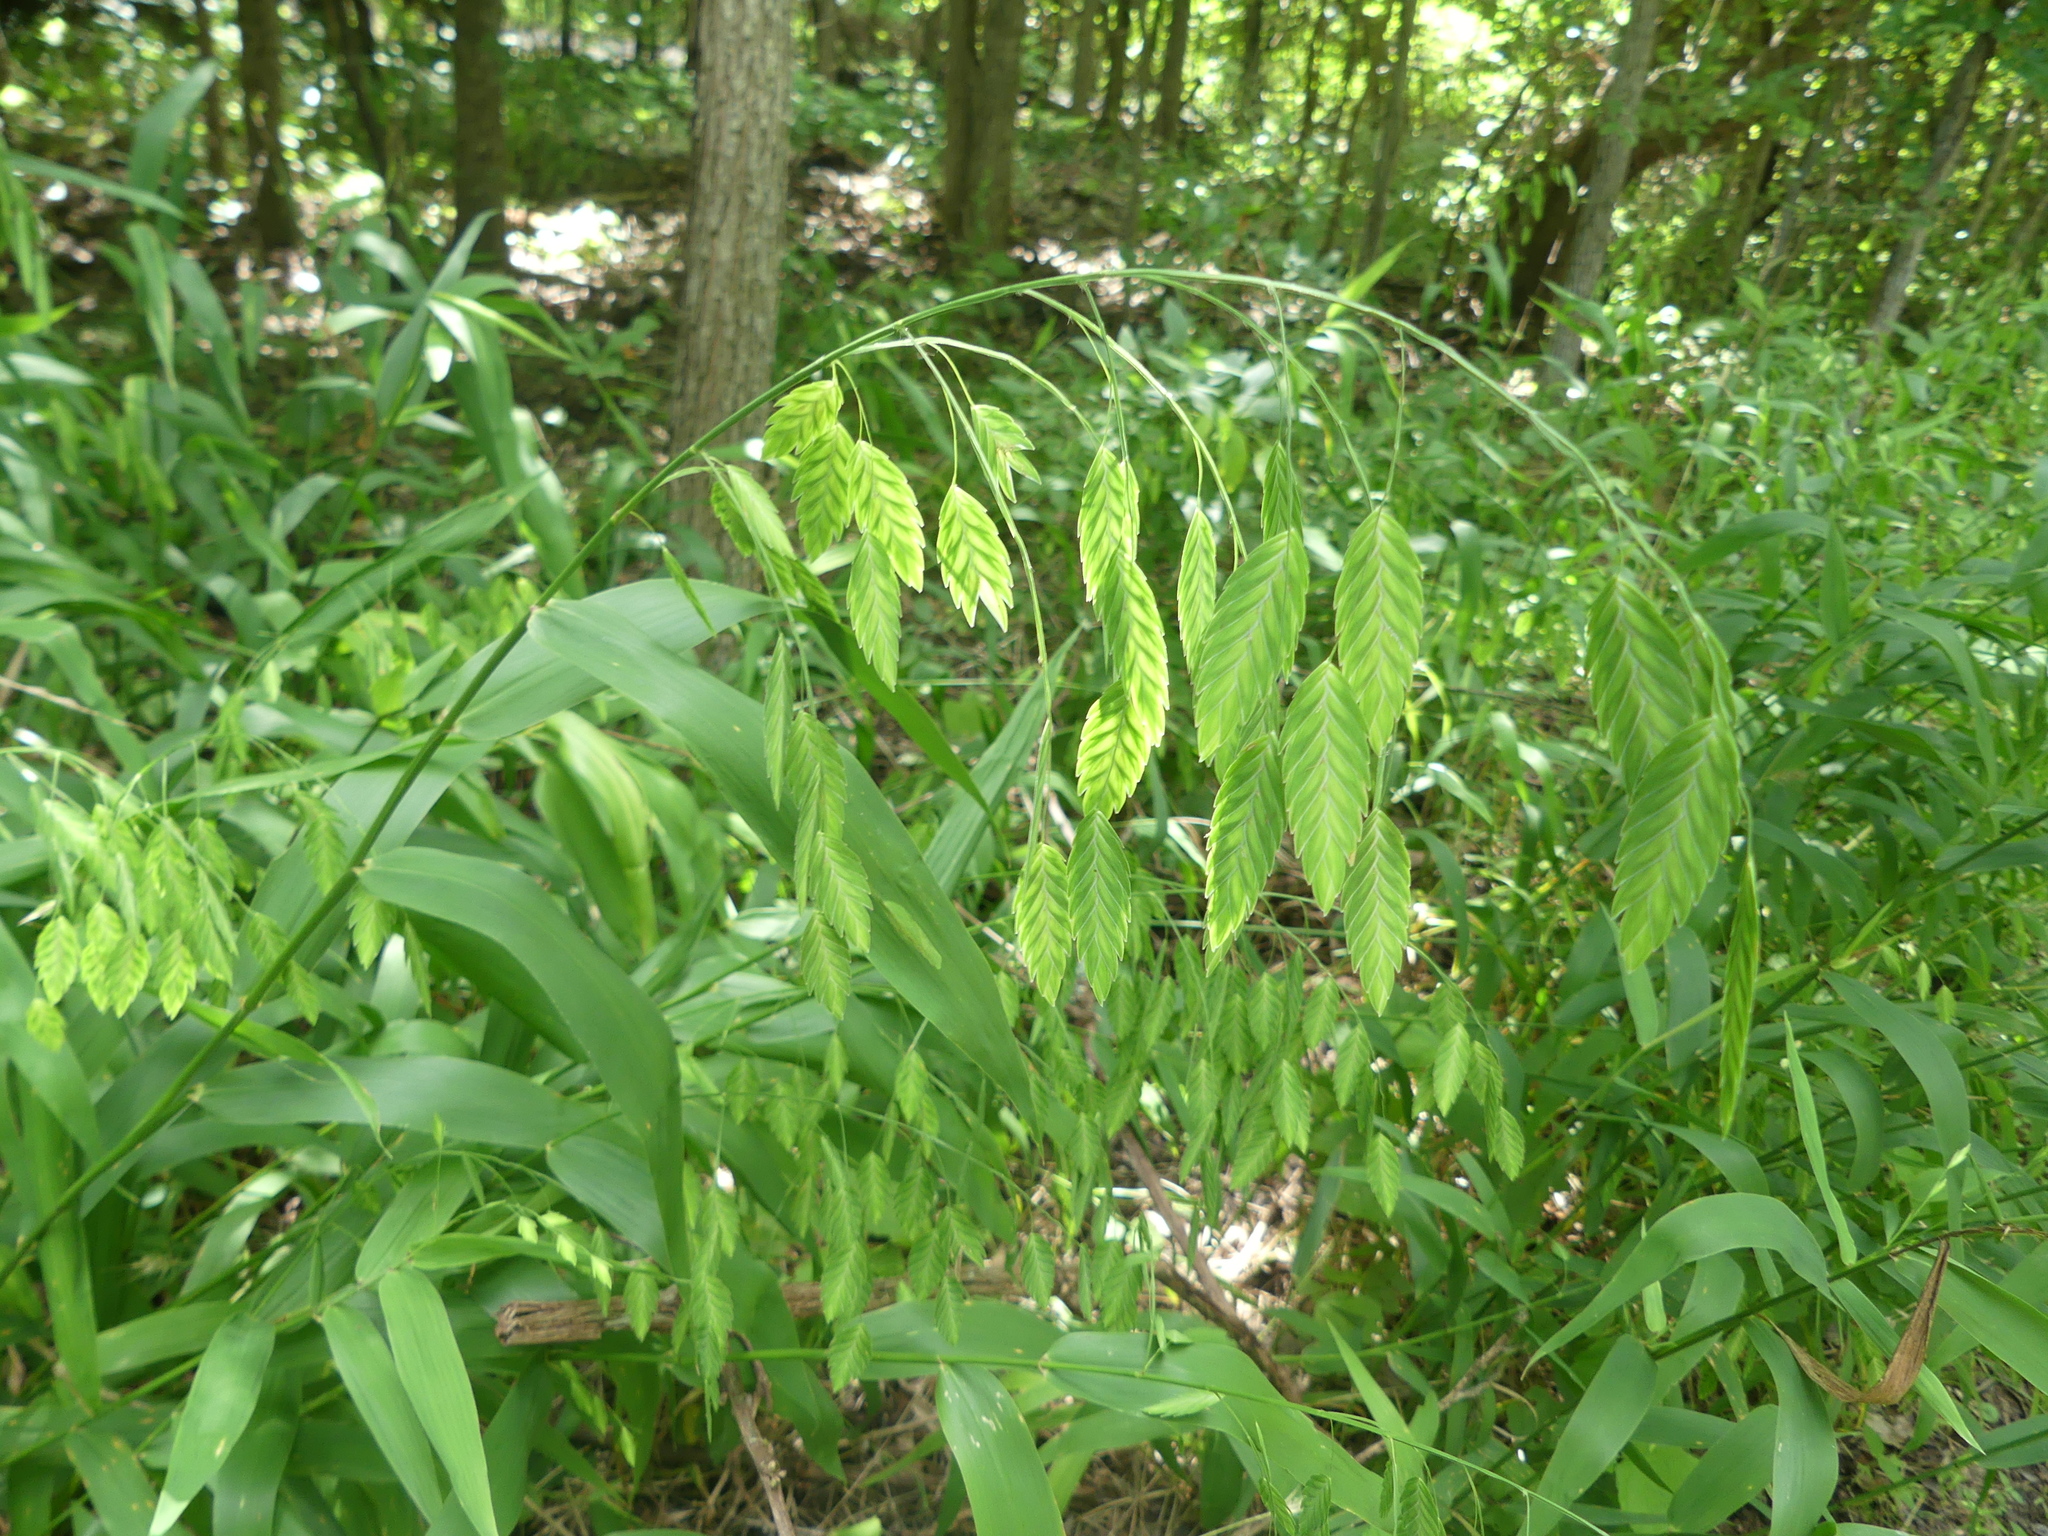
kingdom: Plantae
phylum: Tracheophyta
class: Liliopsida
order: Poales
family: Poaceae
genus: Chasmanthium
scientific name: Chasmanthium latifolium
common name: Broad-leaved chasmanthium
